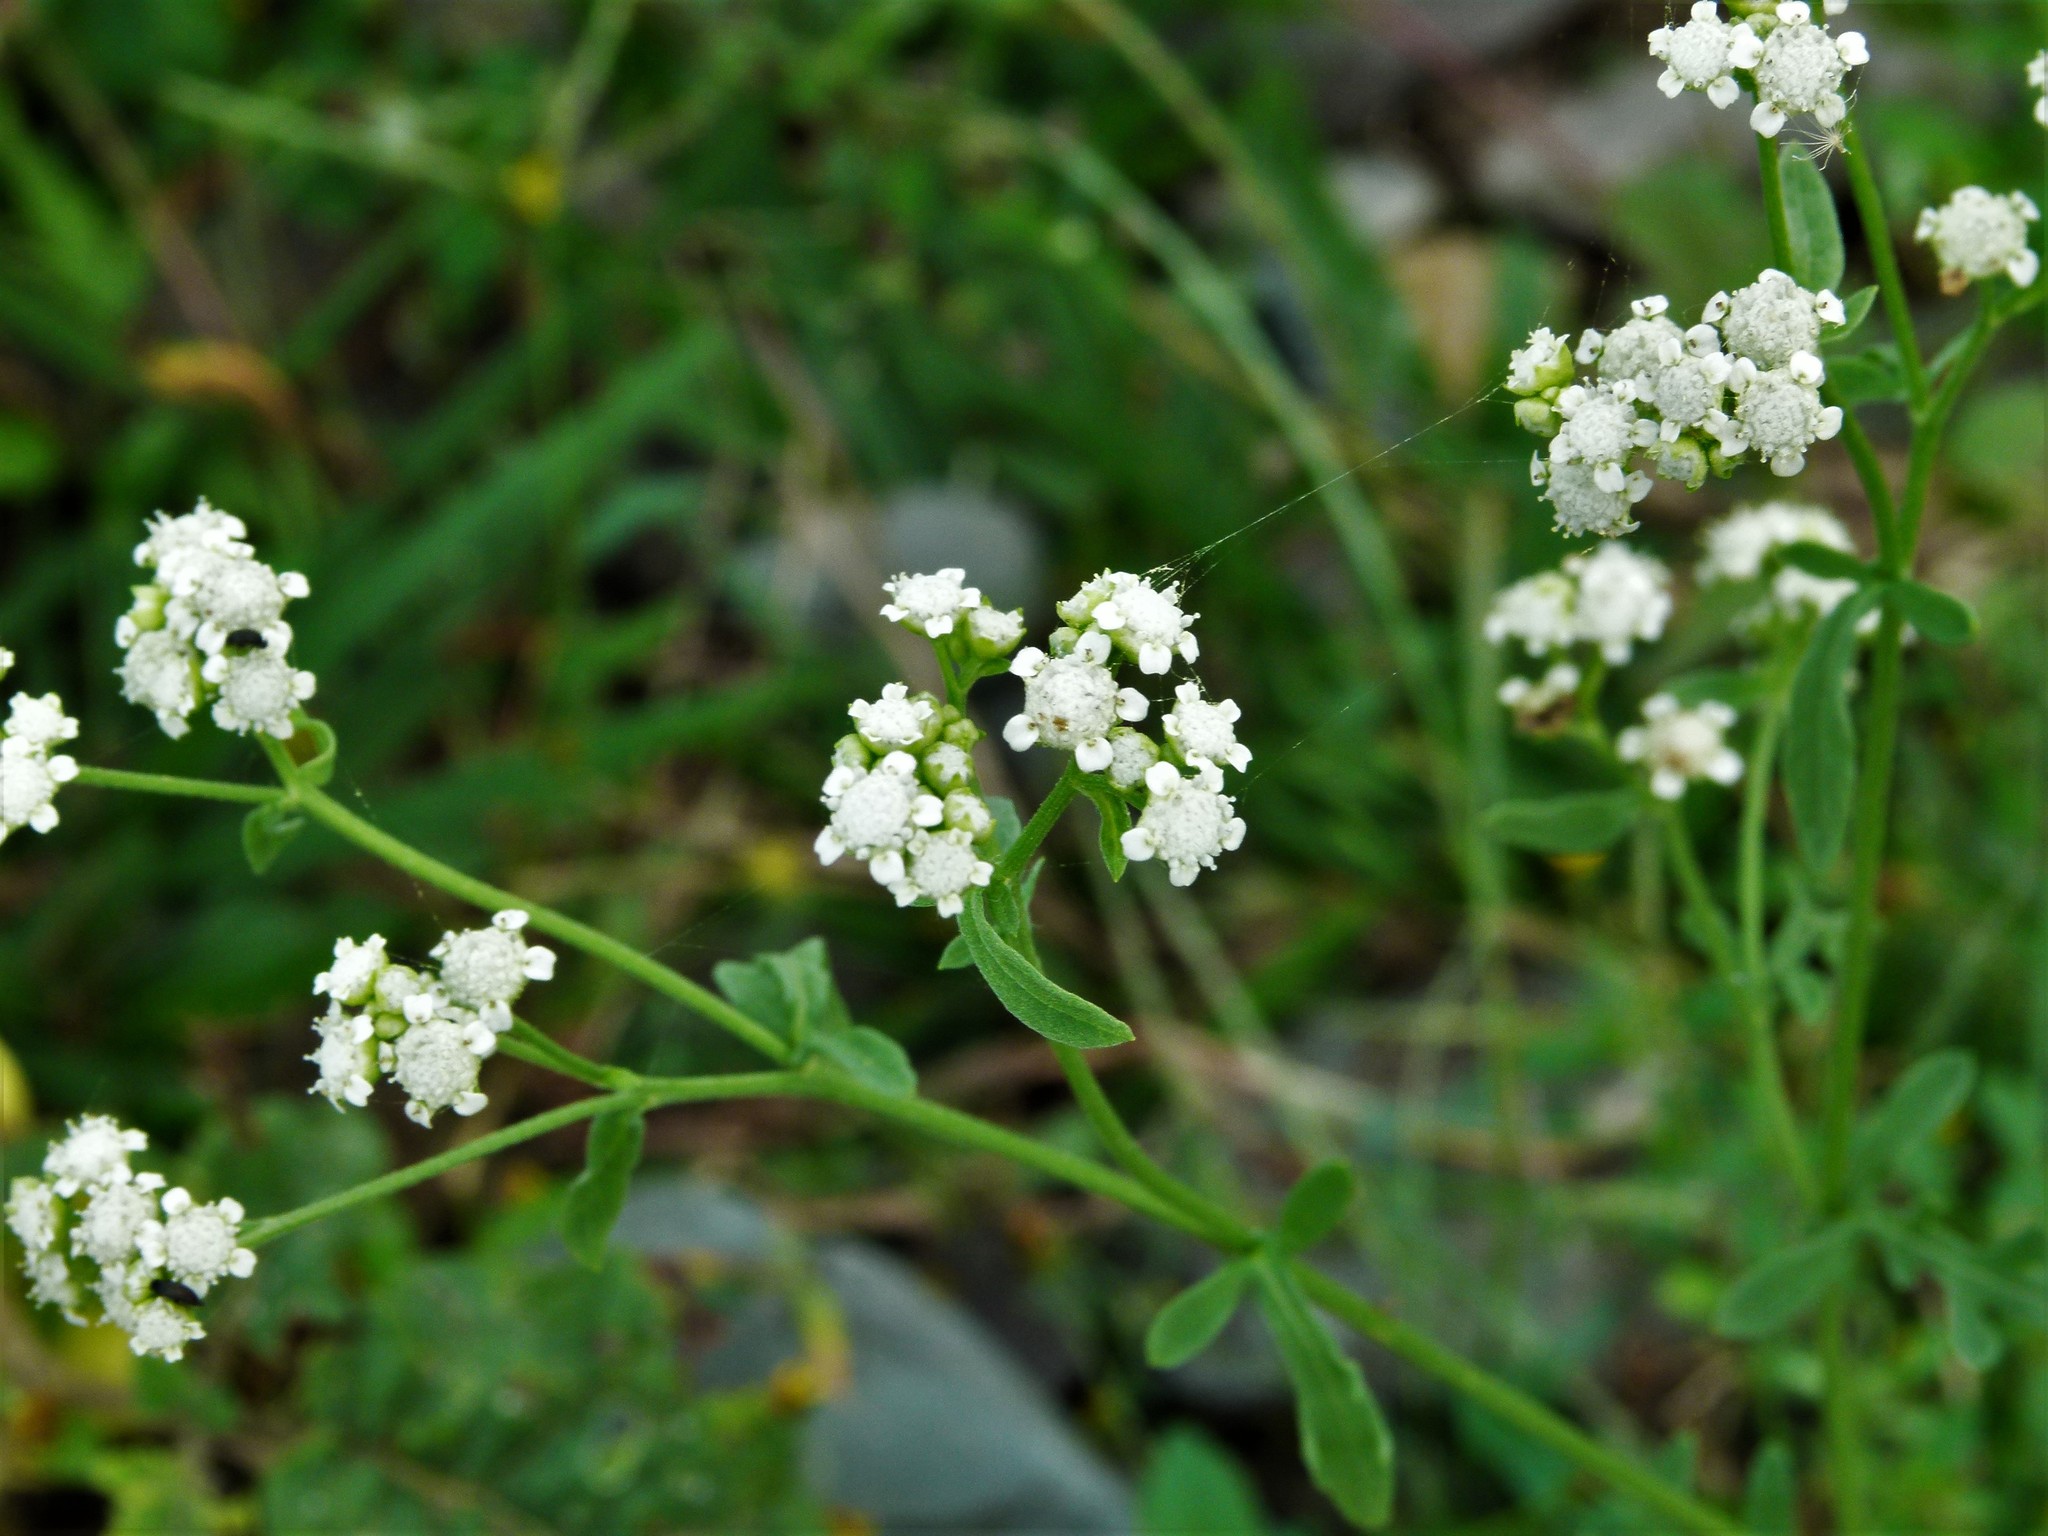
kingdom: Plantae
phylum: Tracheophyta
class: Magnoliopsida
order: Asterales
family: Asteraceae
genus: Parthenium
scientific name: Parthenium hysterophorus
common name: Santa maria feverfew
